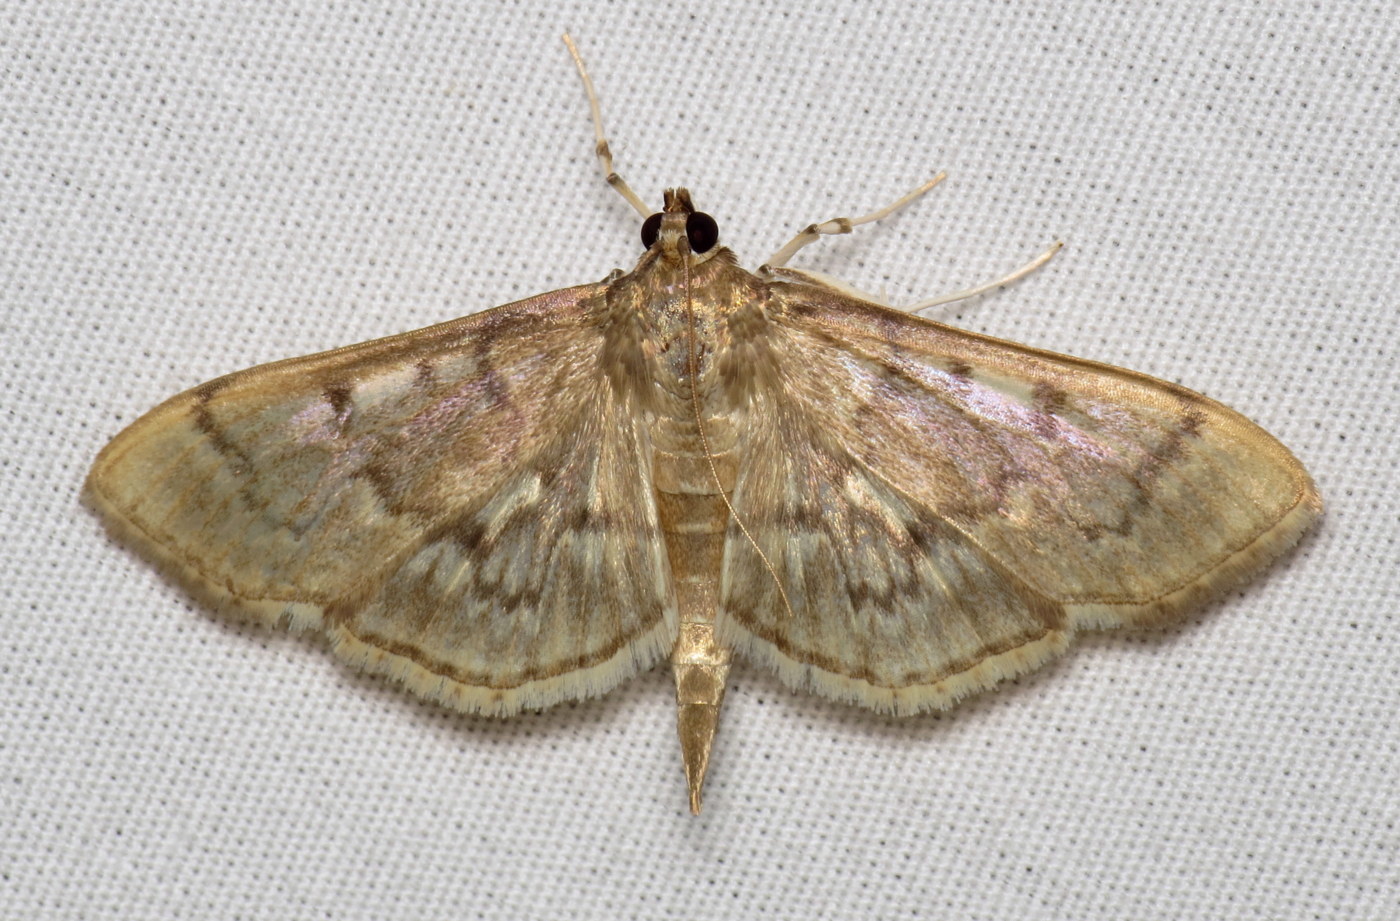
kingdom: Animalia
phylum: Arthropoda
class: Insecta
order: Lepidoptera
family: Crambidae
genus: Herpetogramma
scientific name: Herpetogramma aeglealis
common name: Serpentine webworm moth
